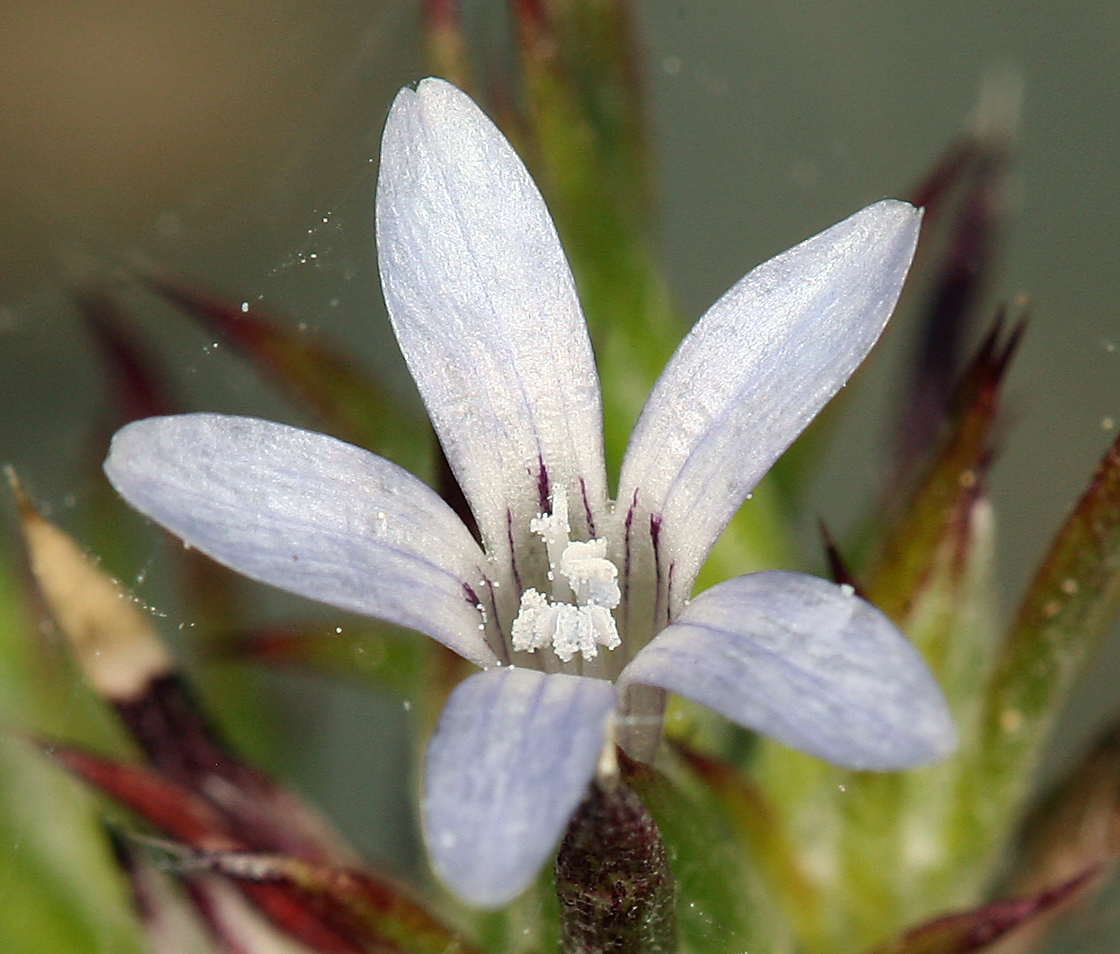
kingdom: Plantae
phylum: Tracheophyta
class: Magnoliopsida
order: Ericales
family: Polemoniaceae
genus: Eriastrum
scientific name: Eriastrum wilcoxii
